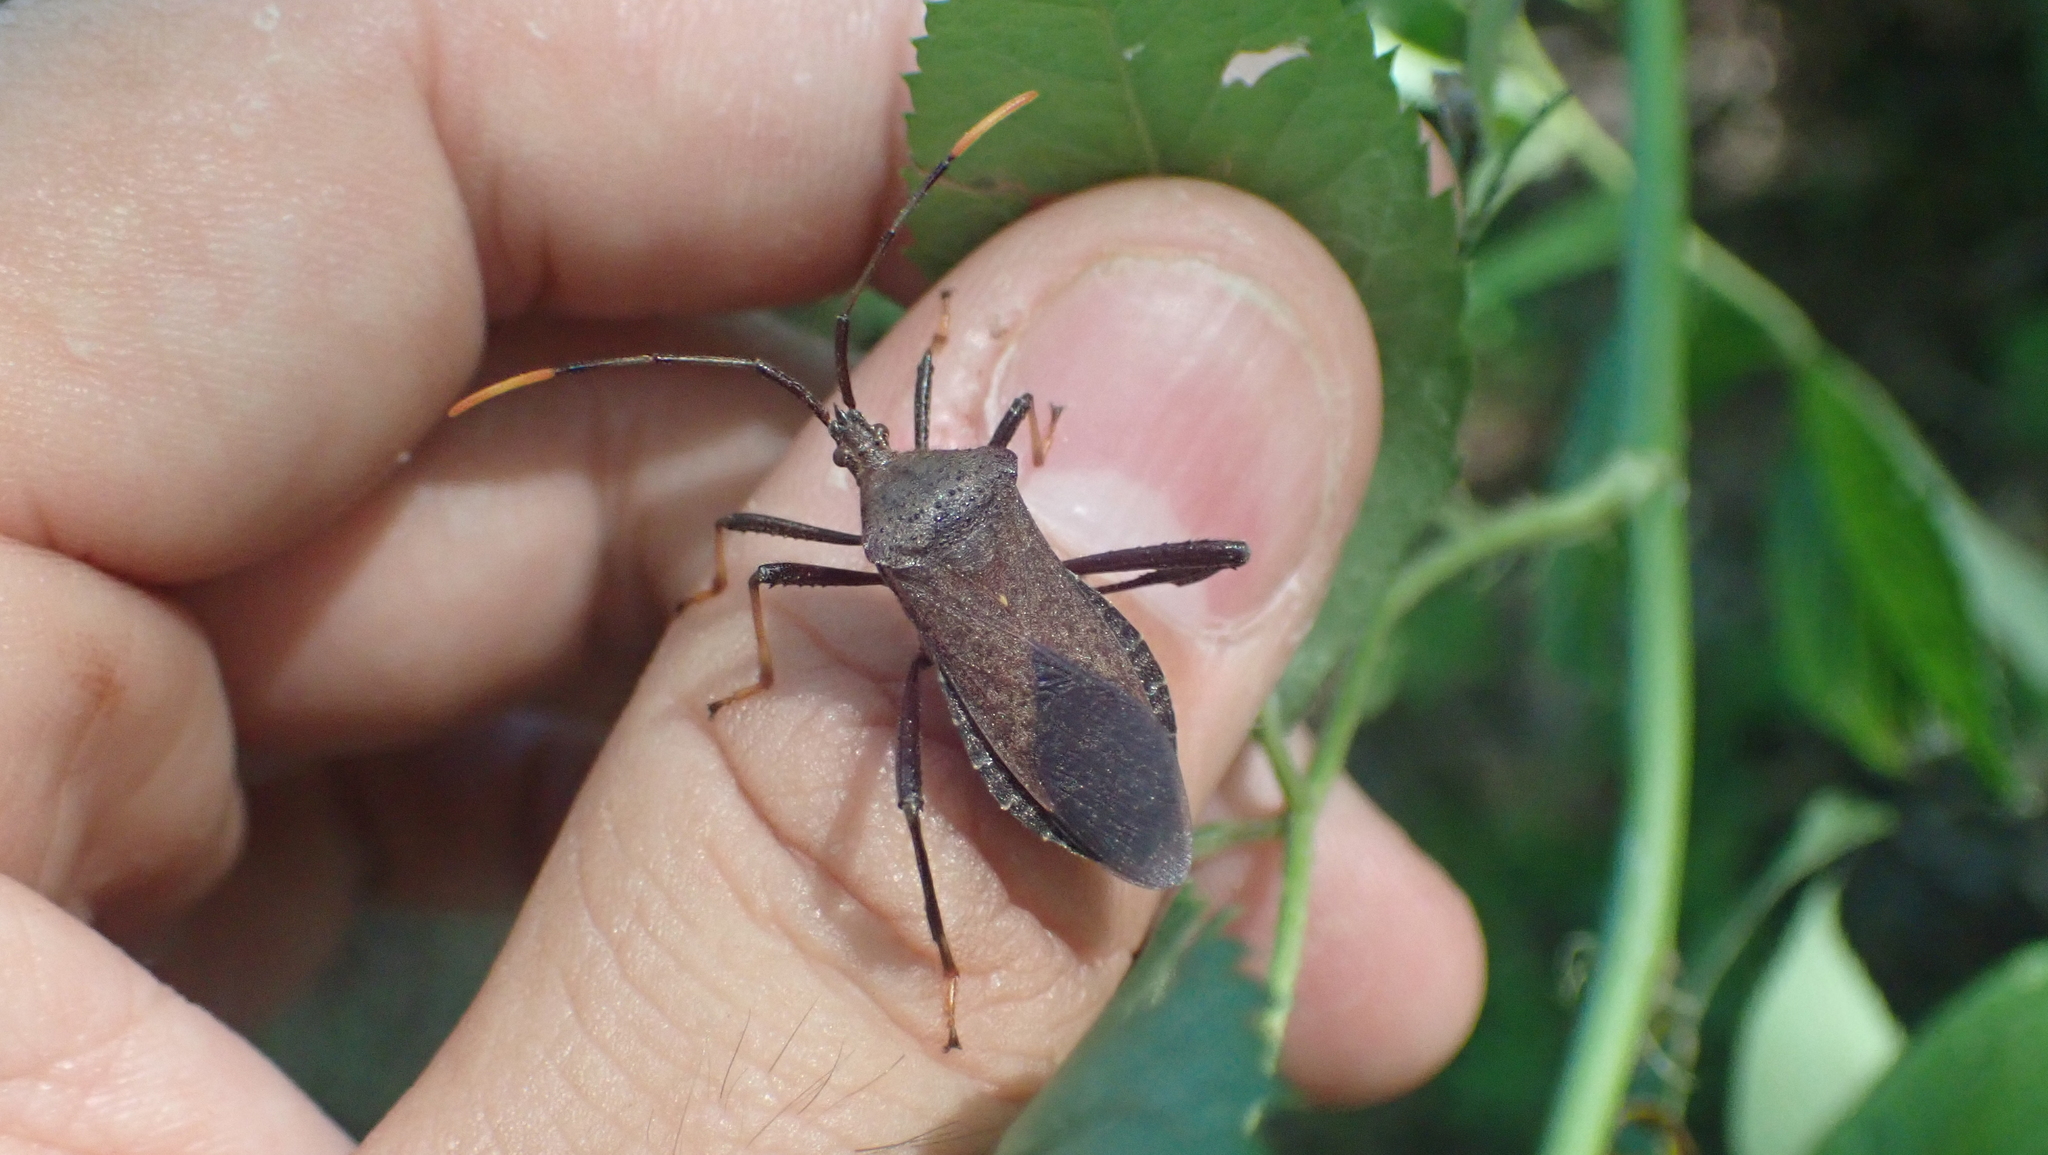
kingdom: Animalia
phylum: Arthropoda
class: Insecta
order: Hemiptera
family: Coreidae
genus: Acanthocephala
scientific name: Acanthocephala terminalis
